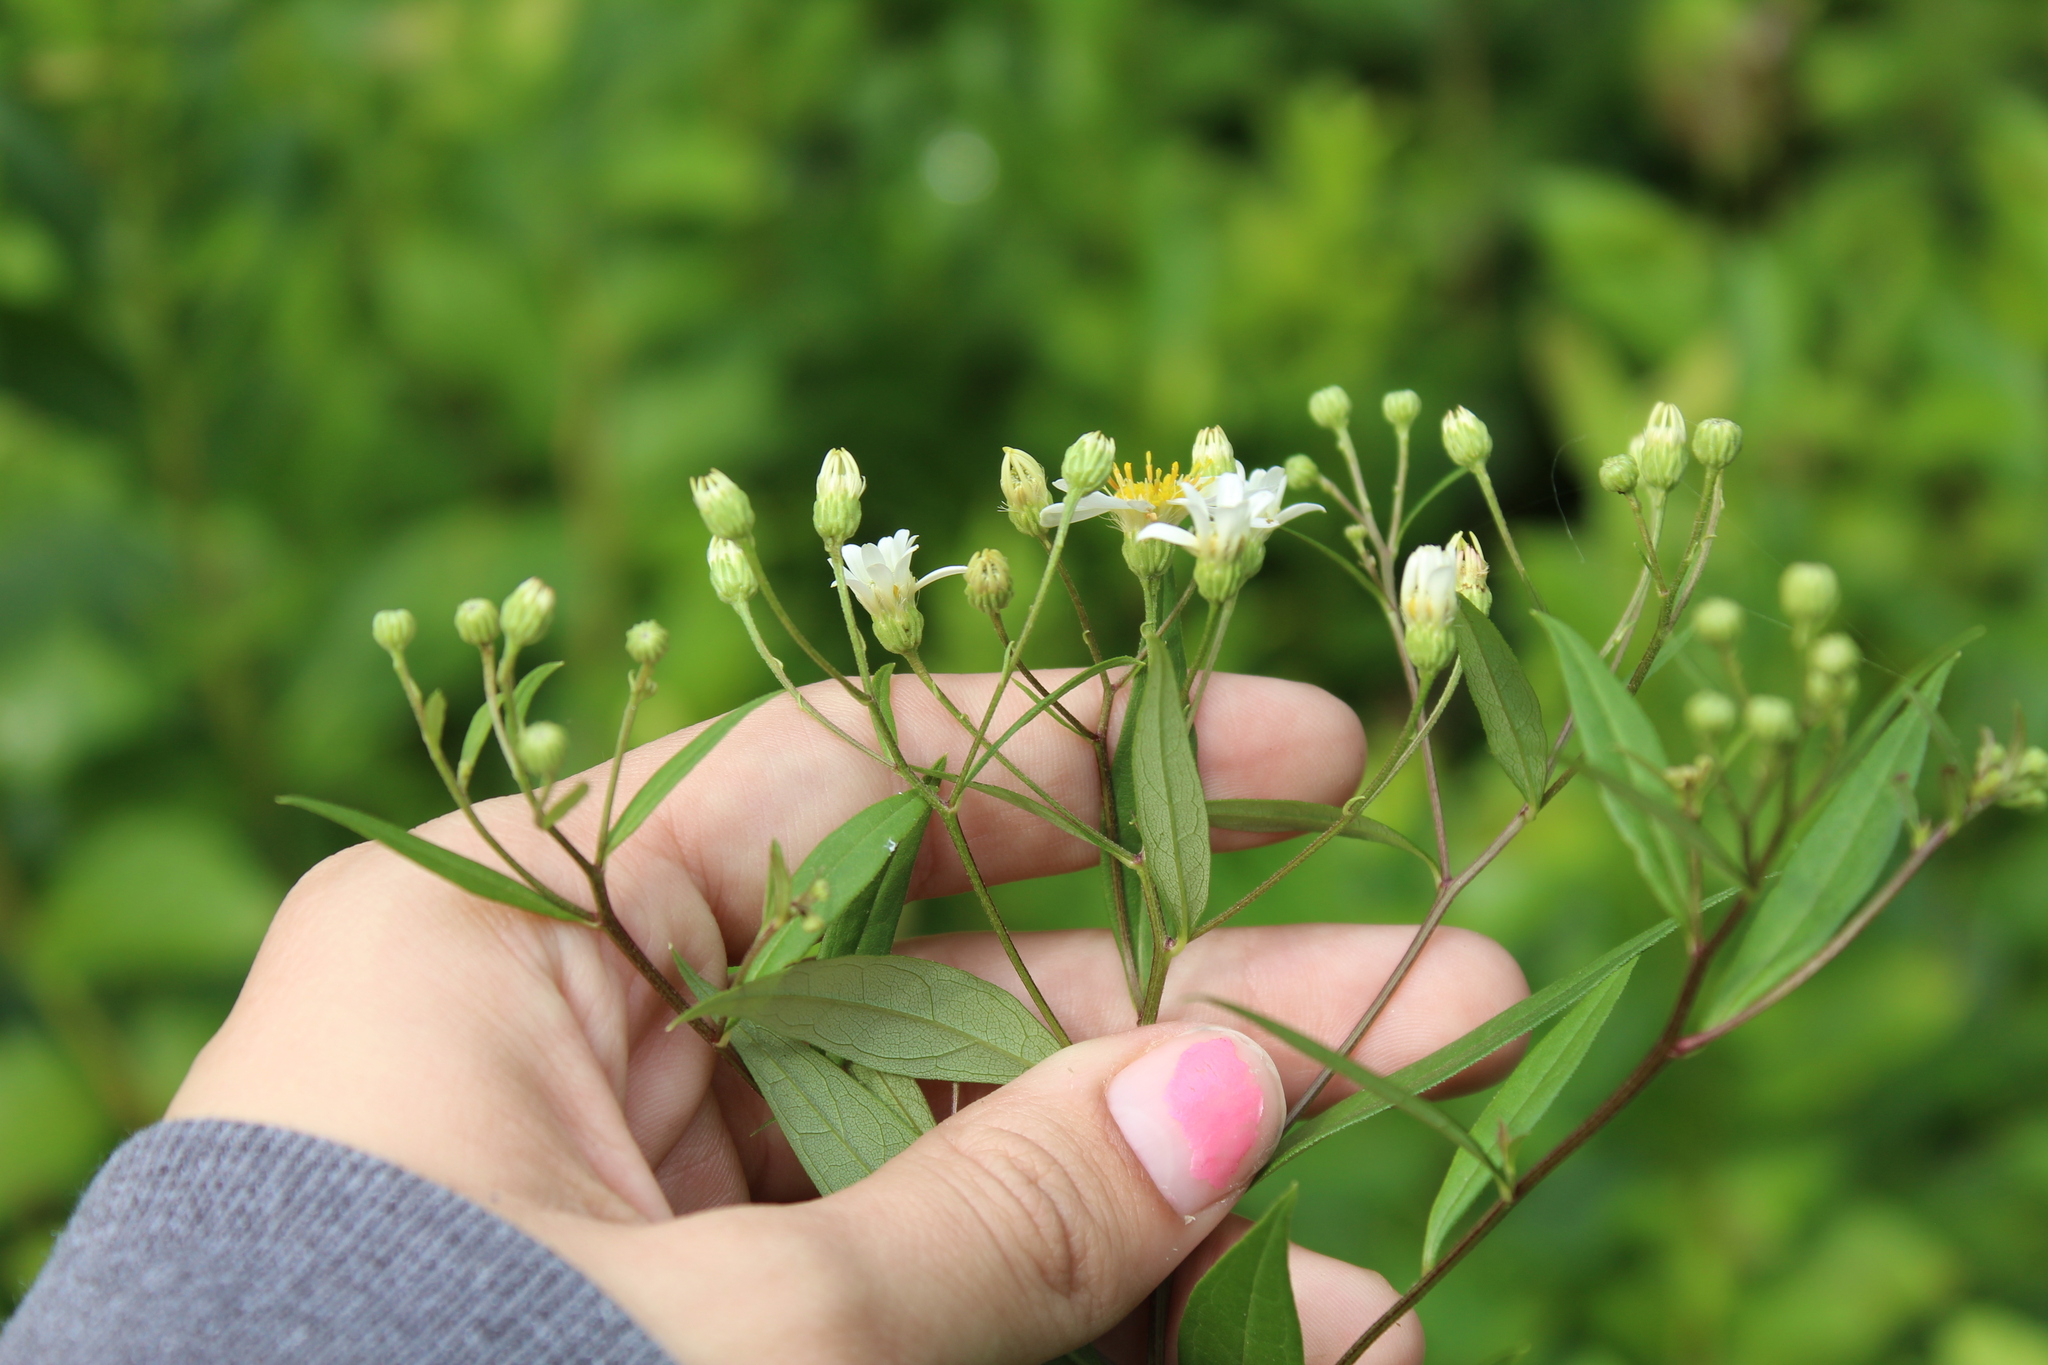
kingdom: Plantae
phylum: Tracheophyta
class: Magnoliopsida
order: Asterales
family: Asteraceae
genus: Doellingeria
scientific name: Doellingeria umbellata
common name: Flat-top white aster
